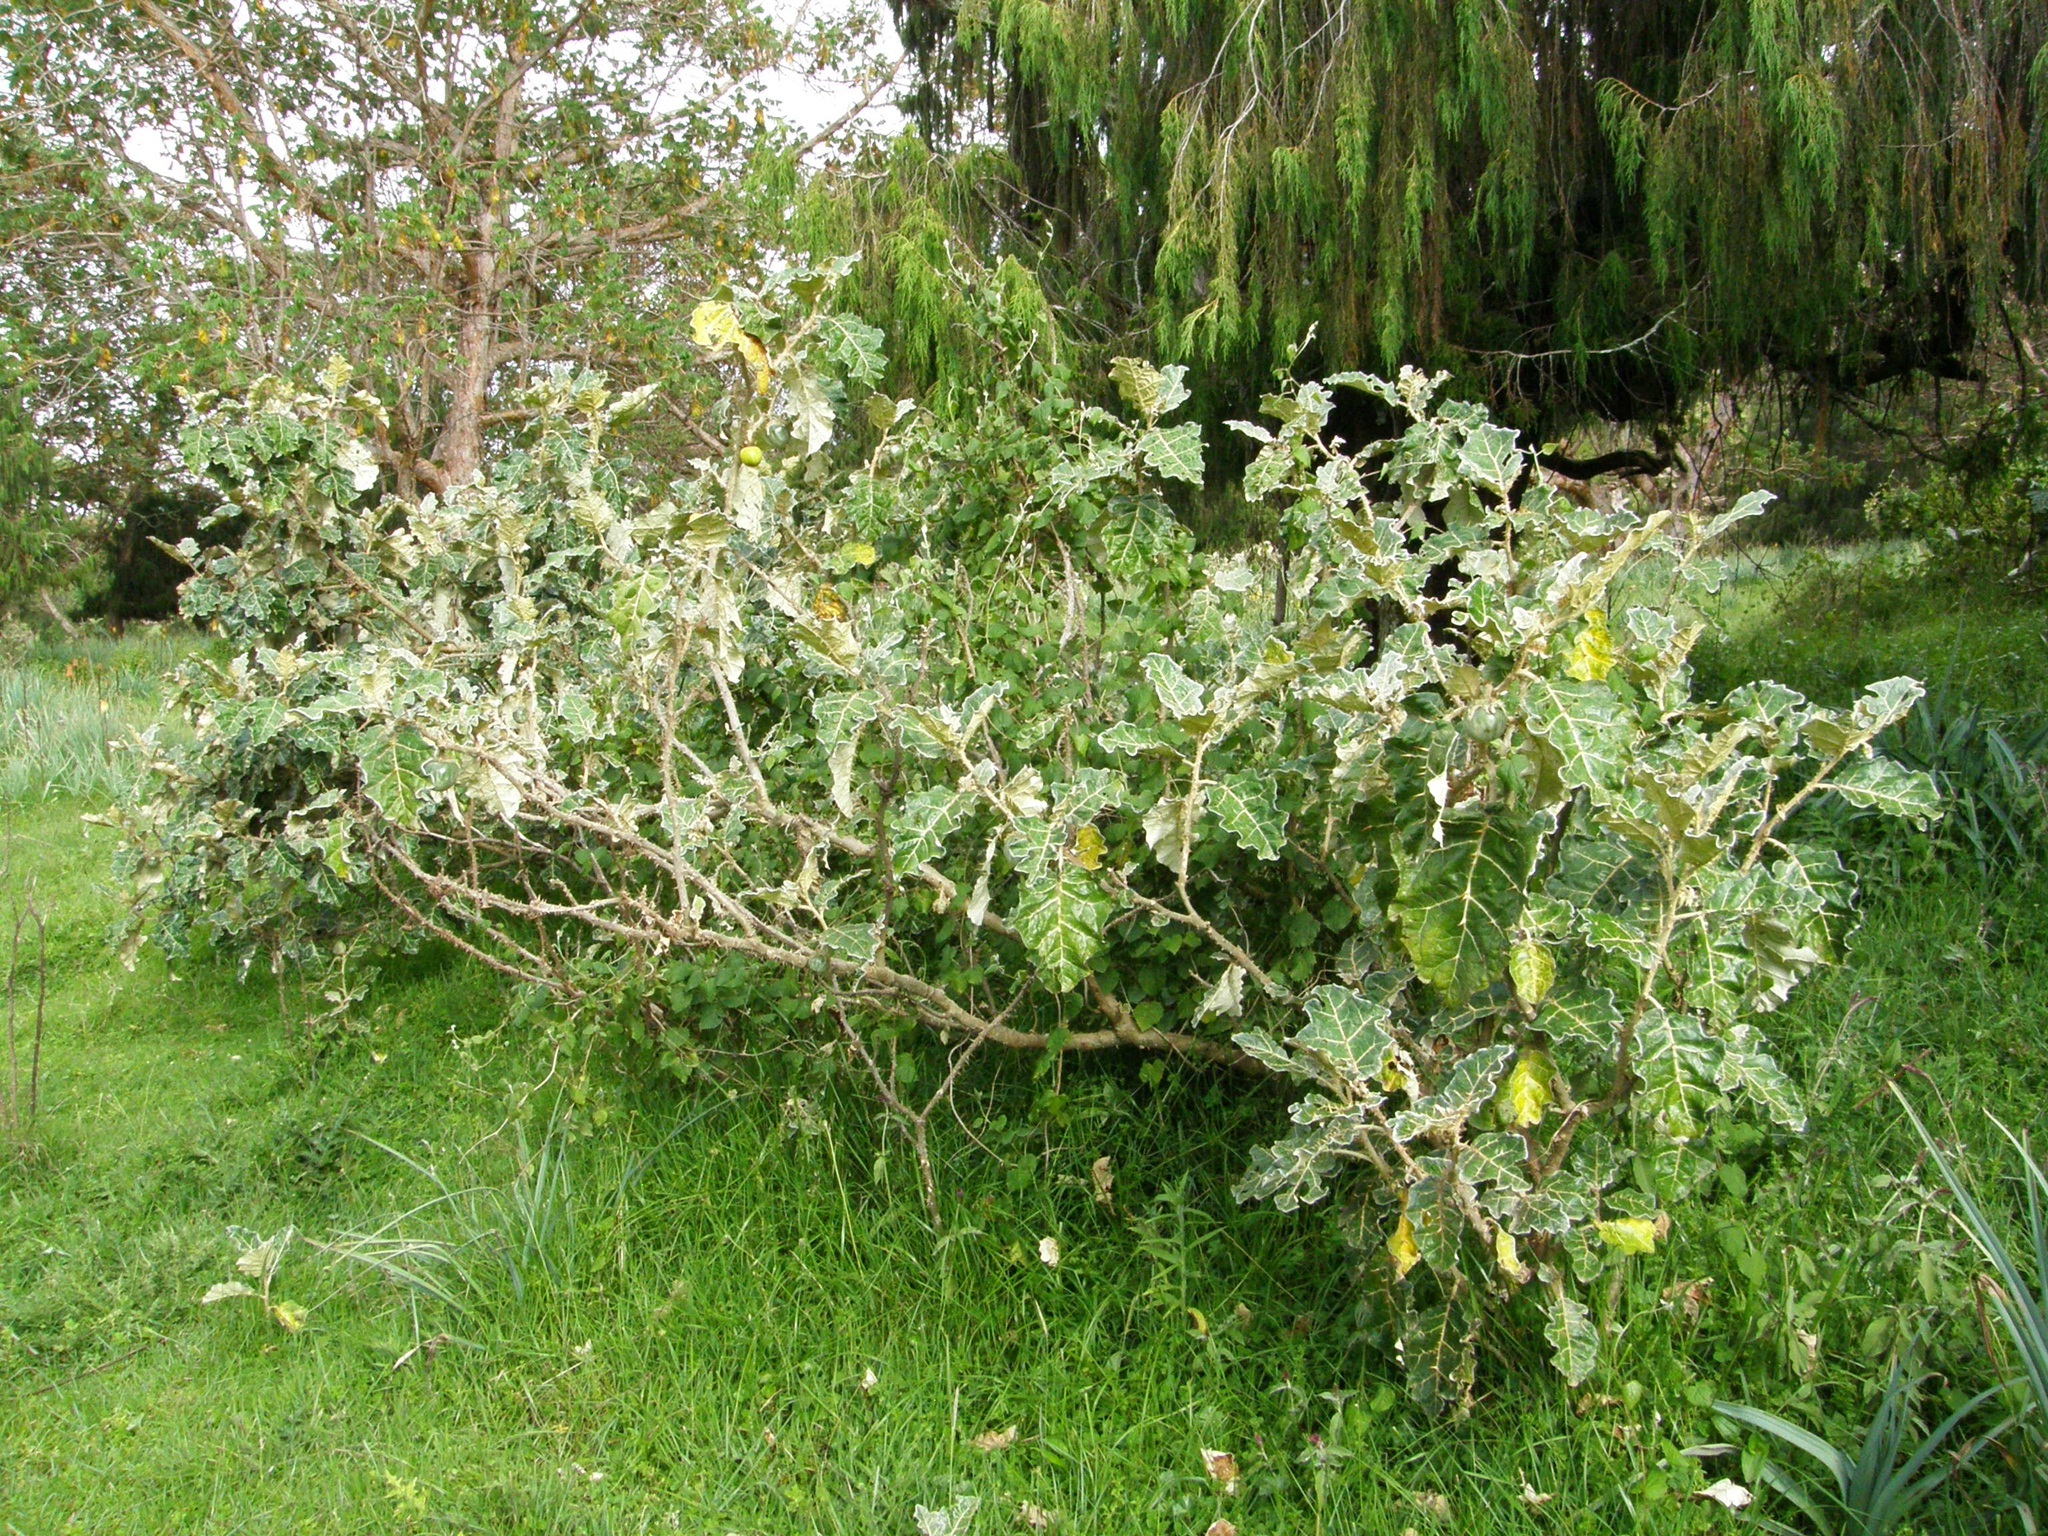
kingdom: Plantae
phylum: Tracheophyta
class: Magnoliopsida
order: Solanales
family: Solanaceae
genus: Solanum
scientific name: Solanum marginatum
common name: Purple african nightshade
